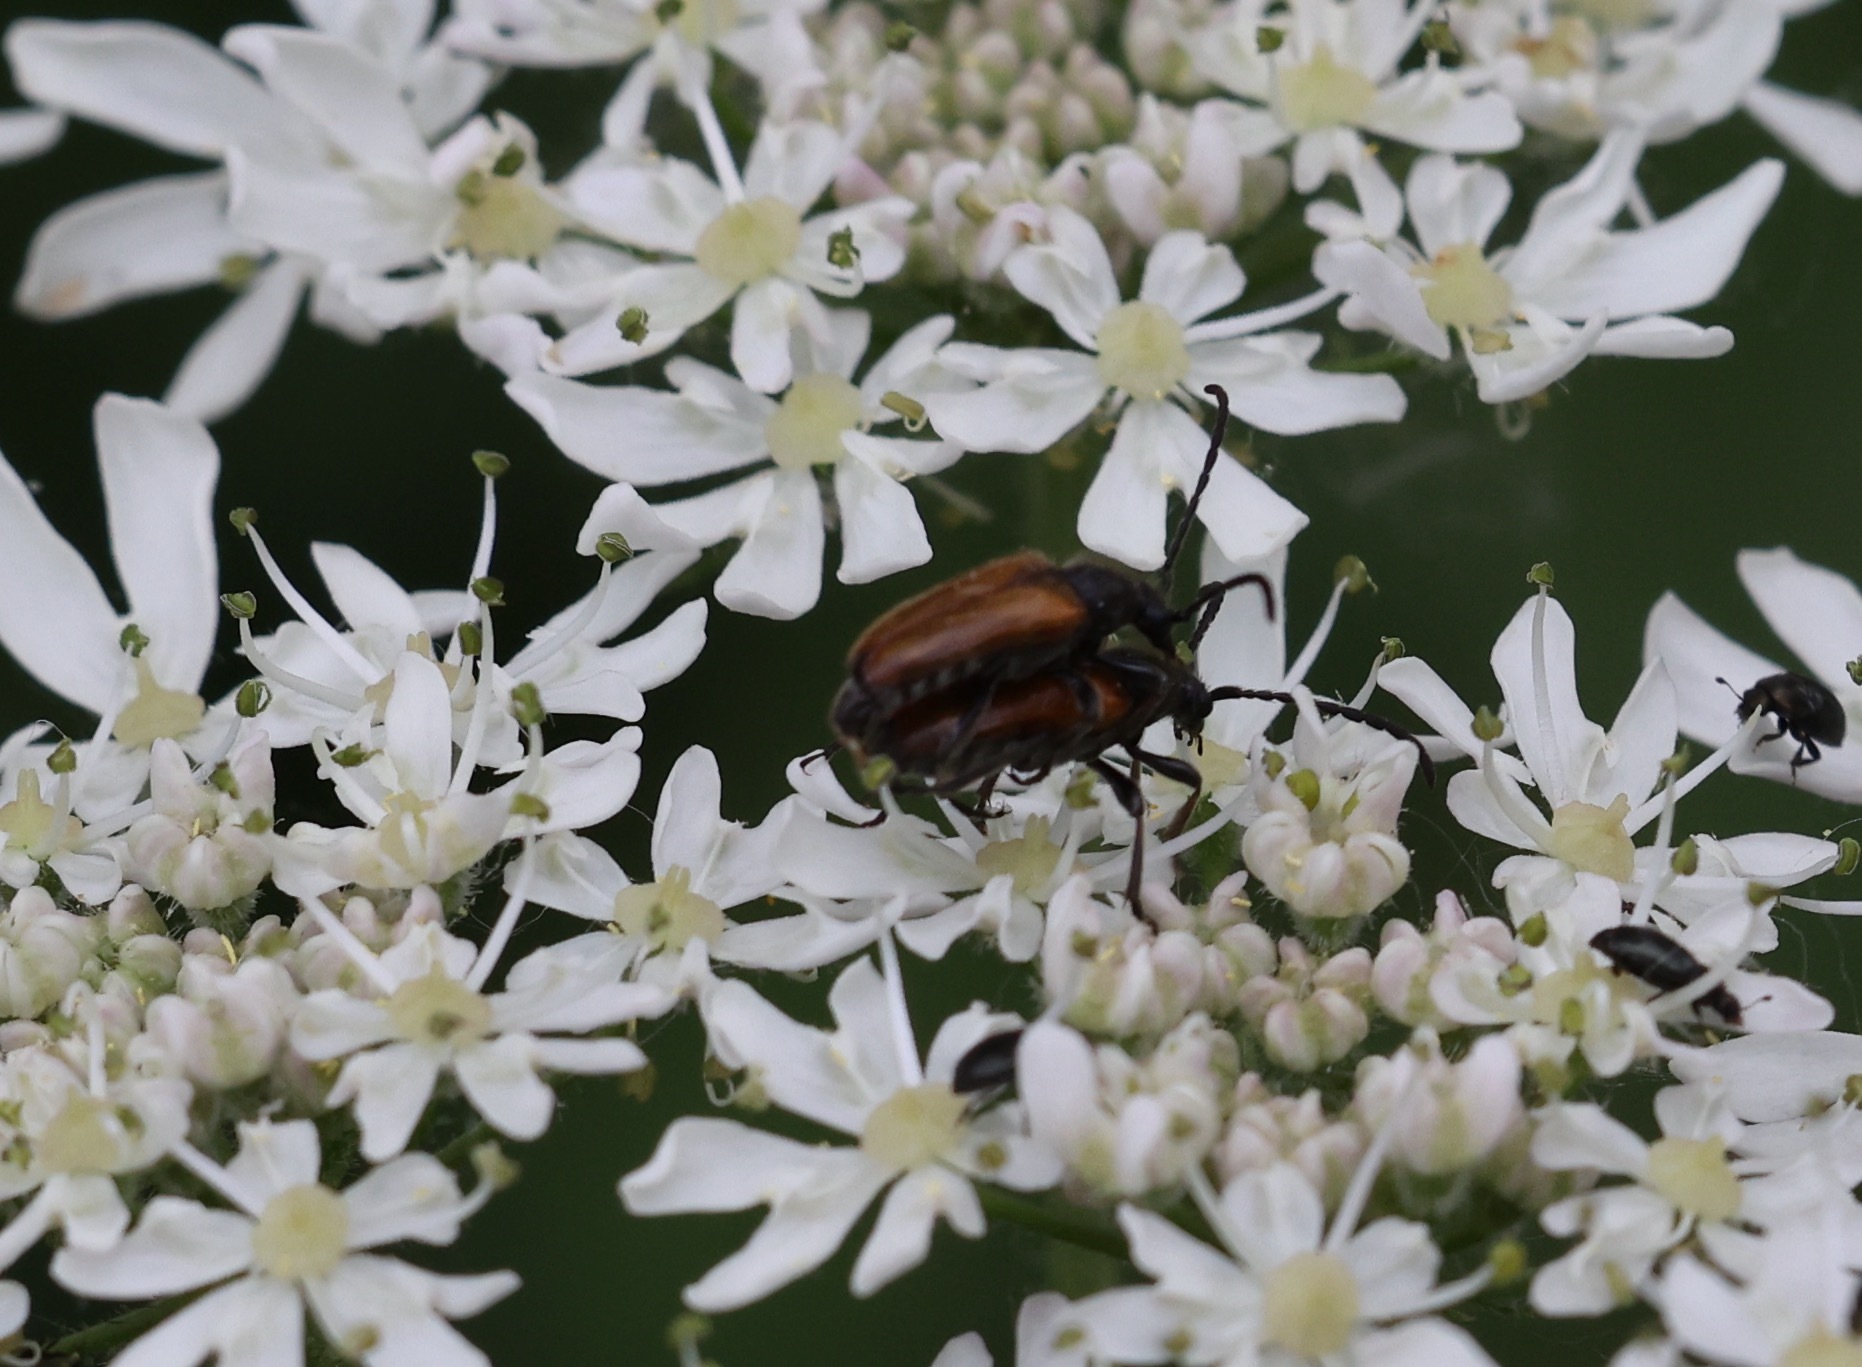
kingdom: Animalia
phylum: Arthropoda
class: Insecta
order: Coleoptera
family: Cerambycidae
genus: Pseudovadonia
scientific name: Pseudovadonia livida
